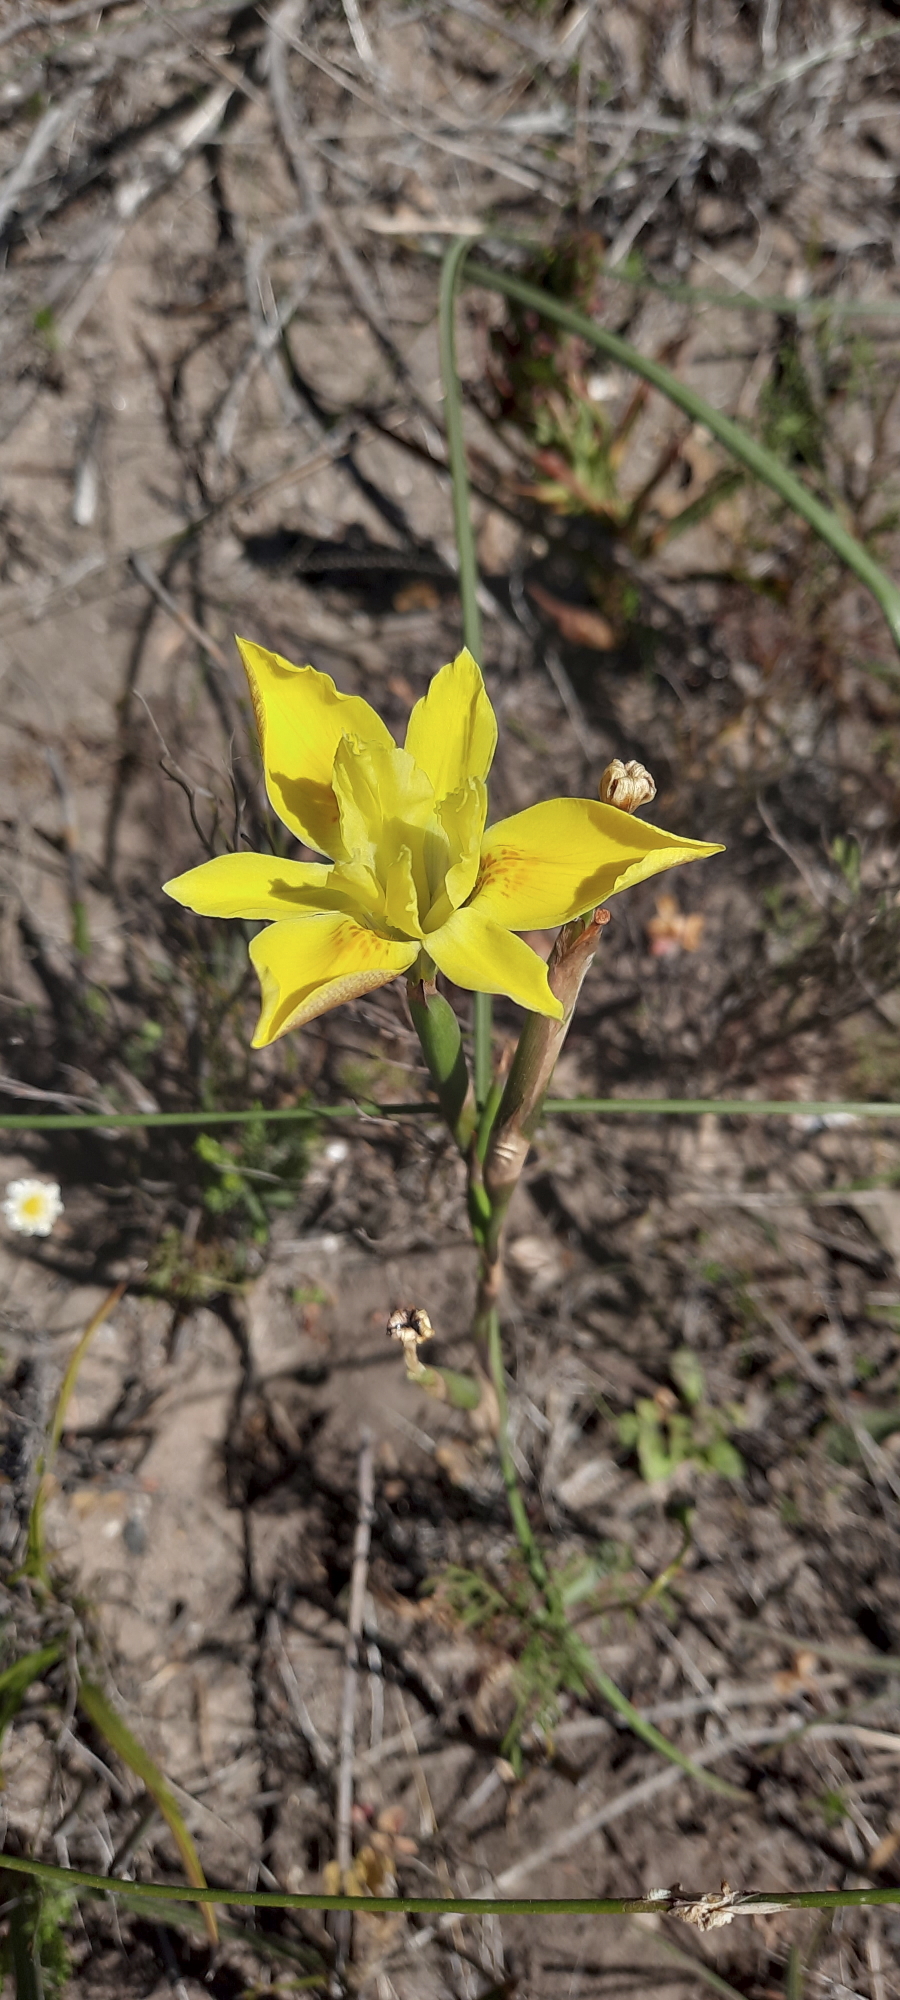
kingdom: Plantae
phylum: Tracheophyta
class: Liliopsida
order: Asparagales
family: Iridaceae
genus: Moraea
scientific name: Moraea fugax
